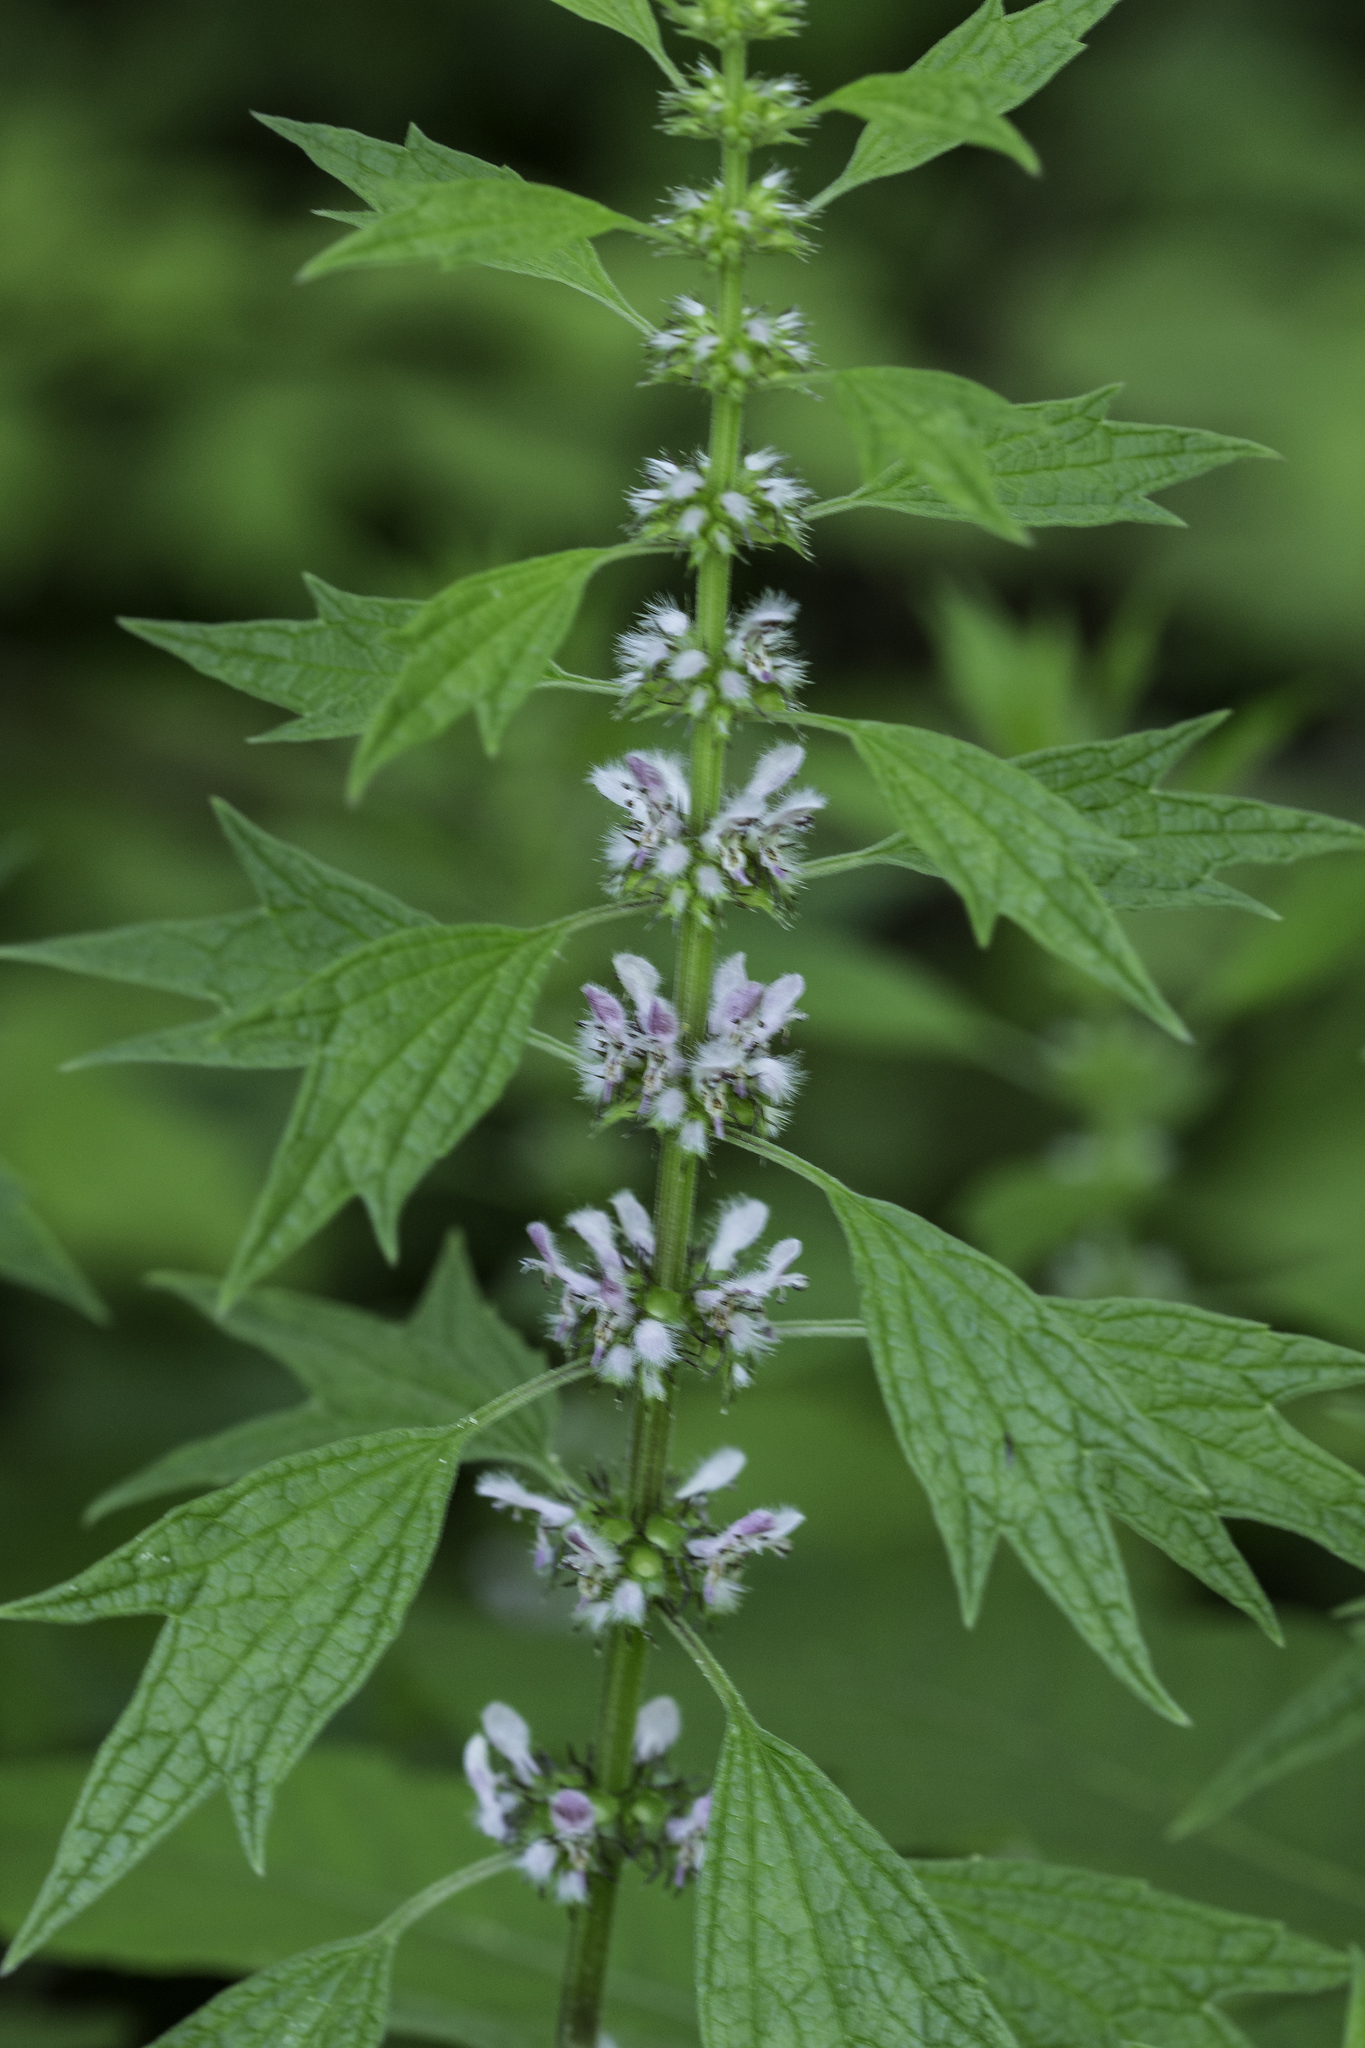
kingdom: Plantae
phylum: Tracheophyta
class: Magnoliopsida
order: Lamiales
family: Lamiaceae
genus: Leonurus
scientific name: Leonurus cardiaca
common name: Motherwort
